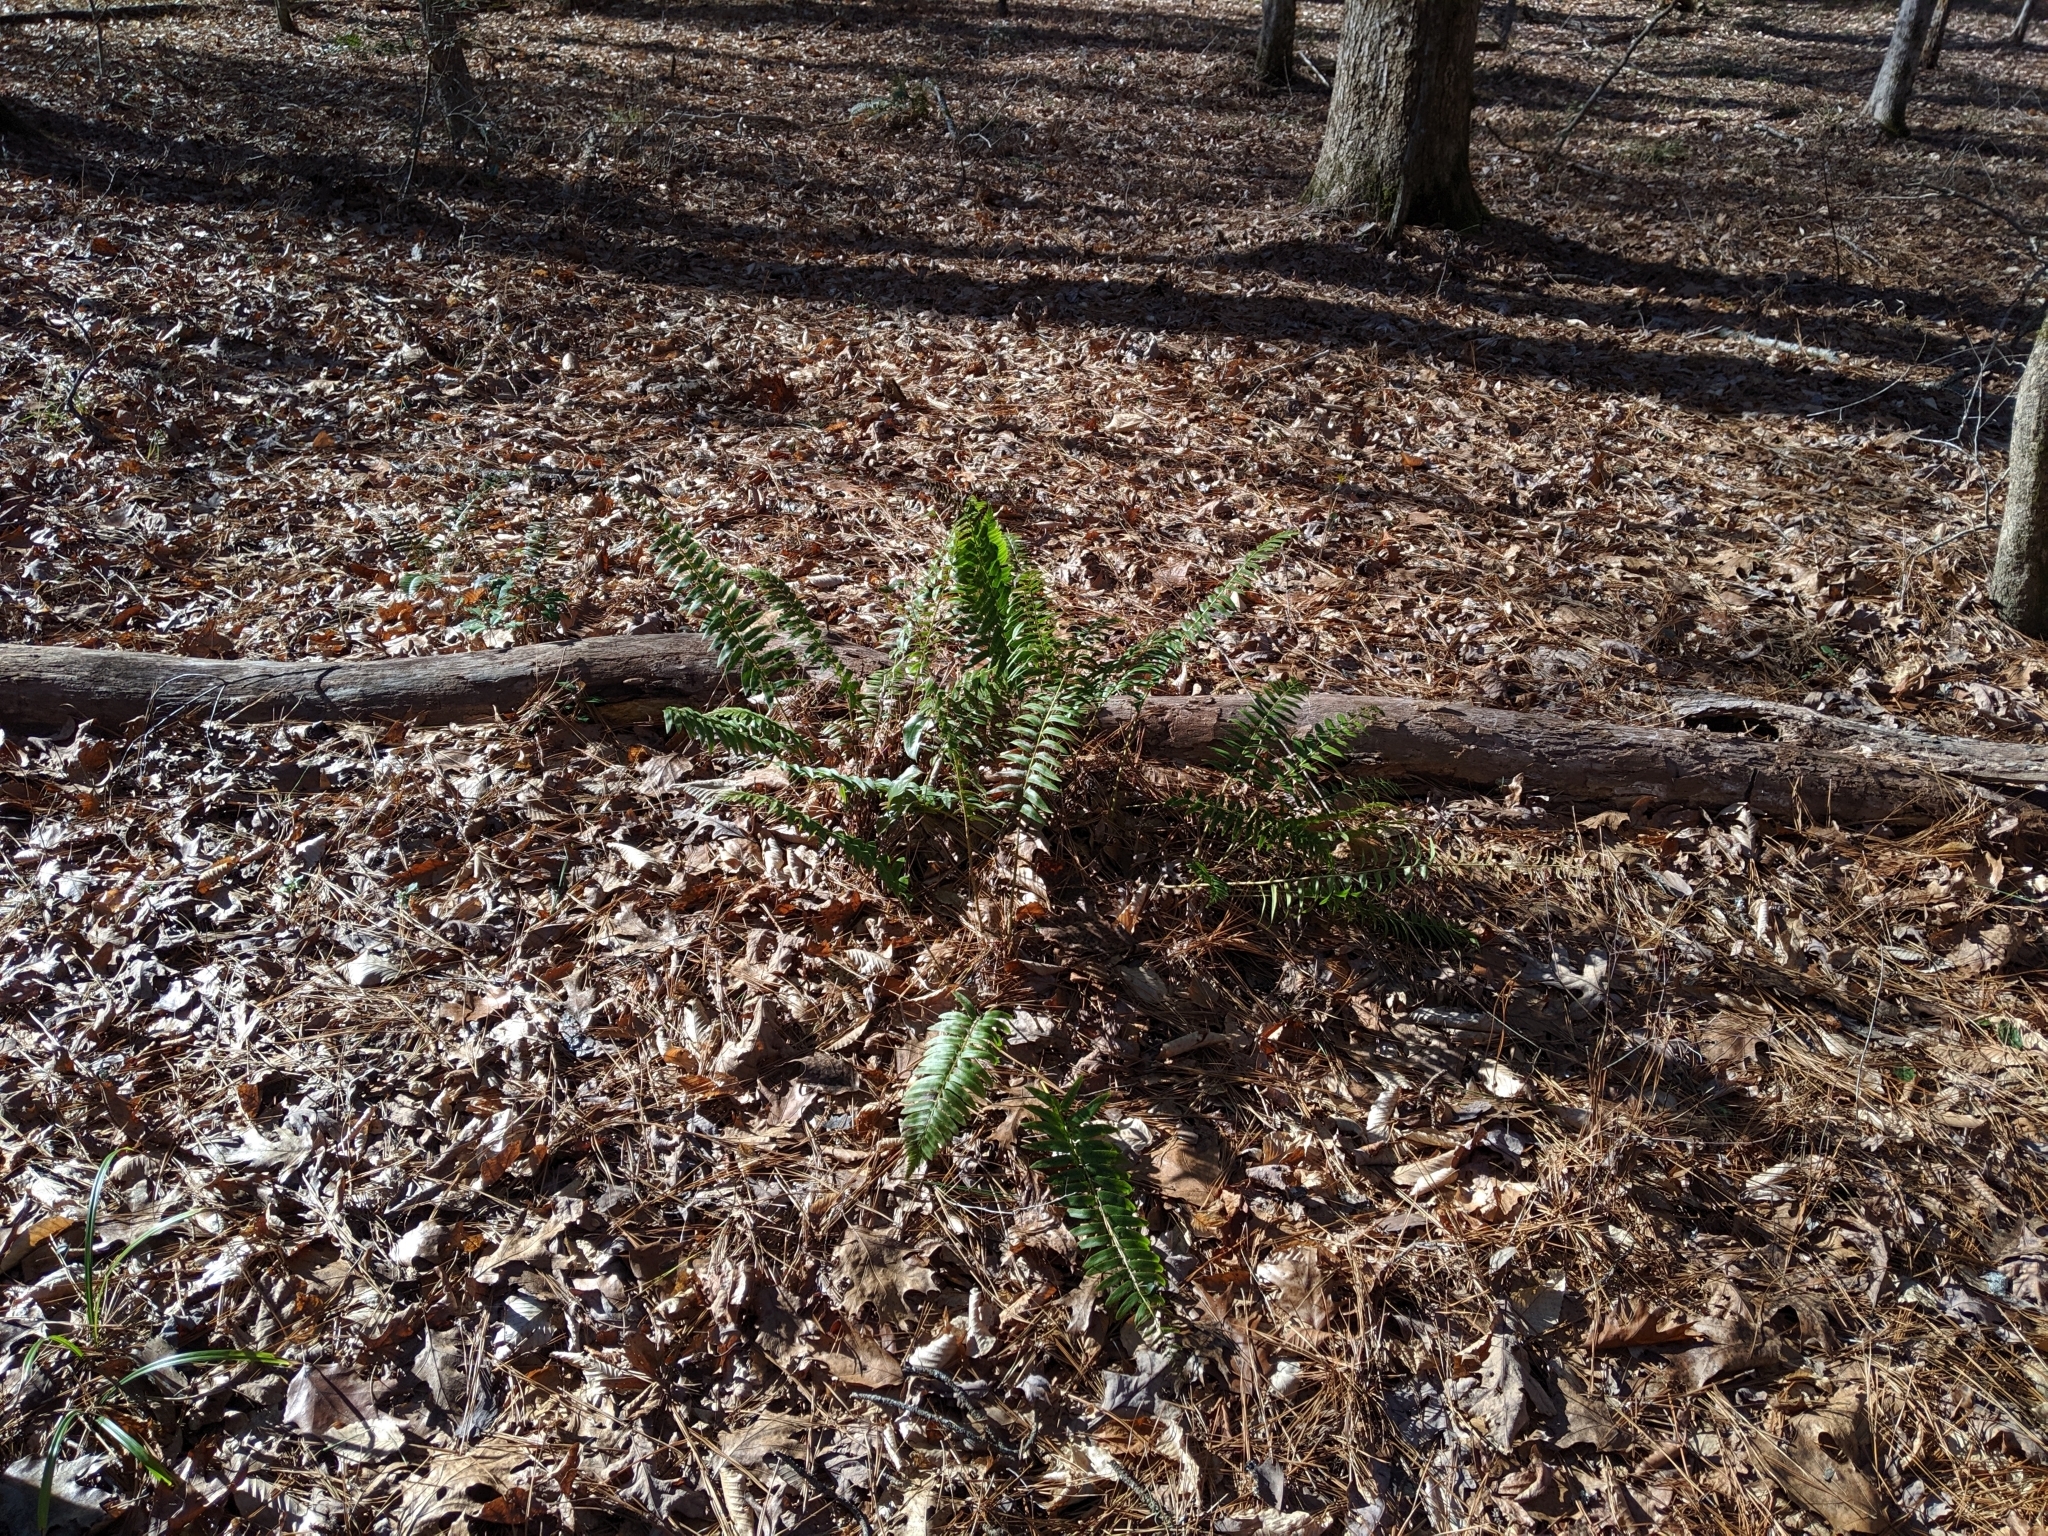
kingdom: Plantae
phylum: Tracheophyta
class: Polypodiopsida
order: Polypodiales
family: Dryopteridaceae
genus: Polystichum
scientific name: Polystichum acrostichoides
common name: Christmas fern
